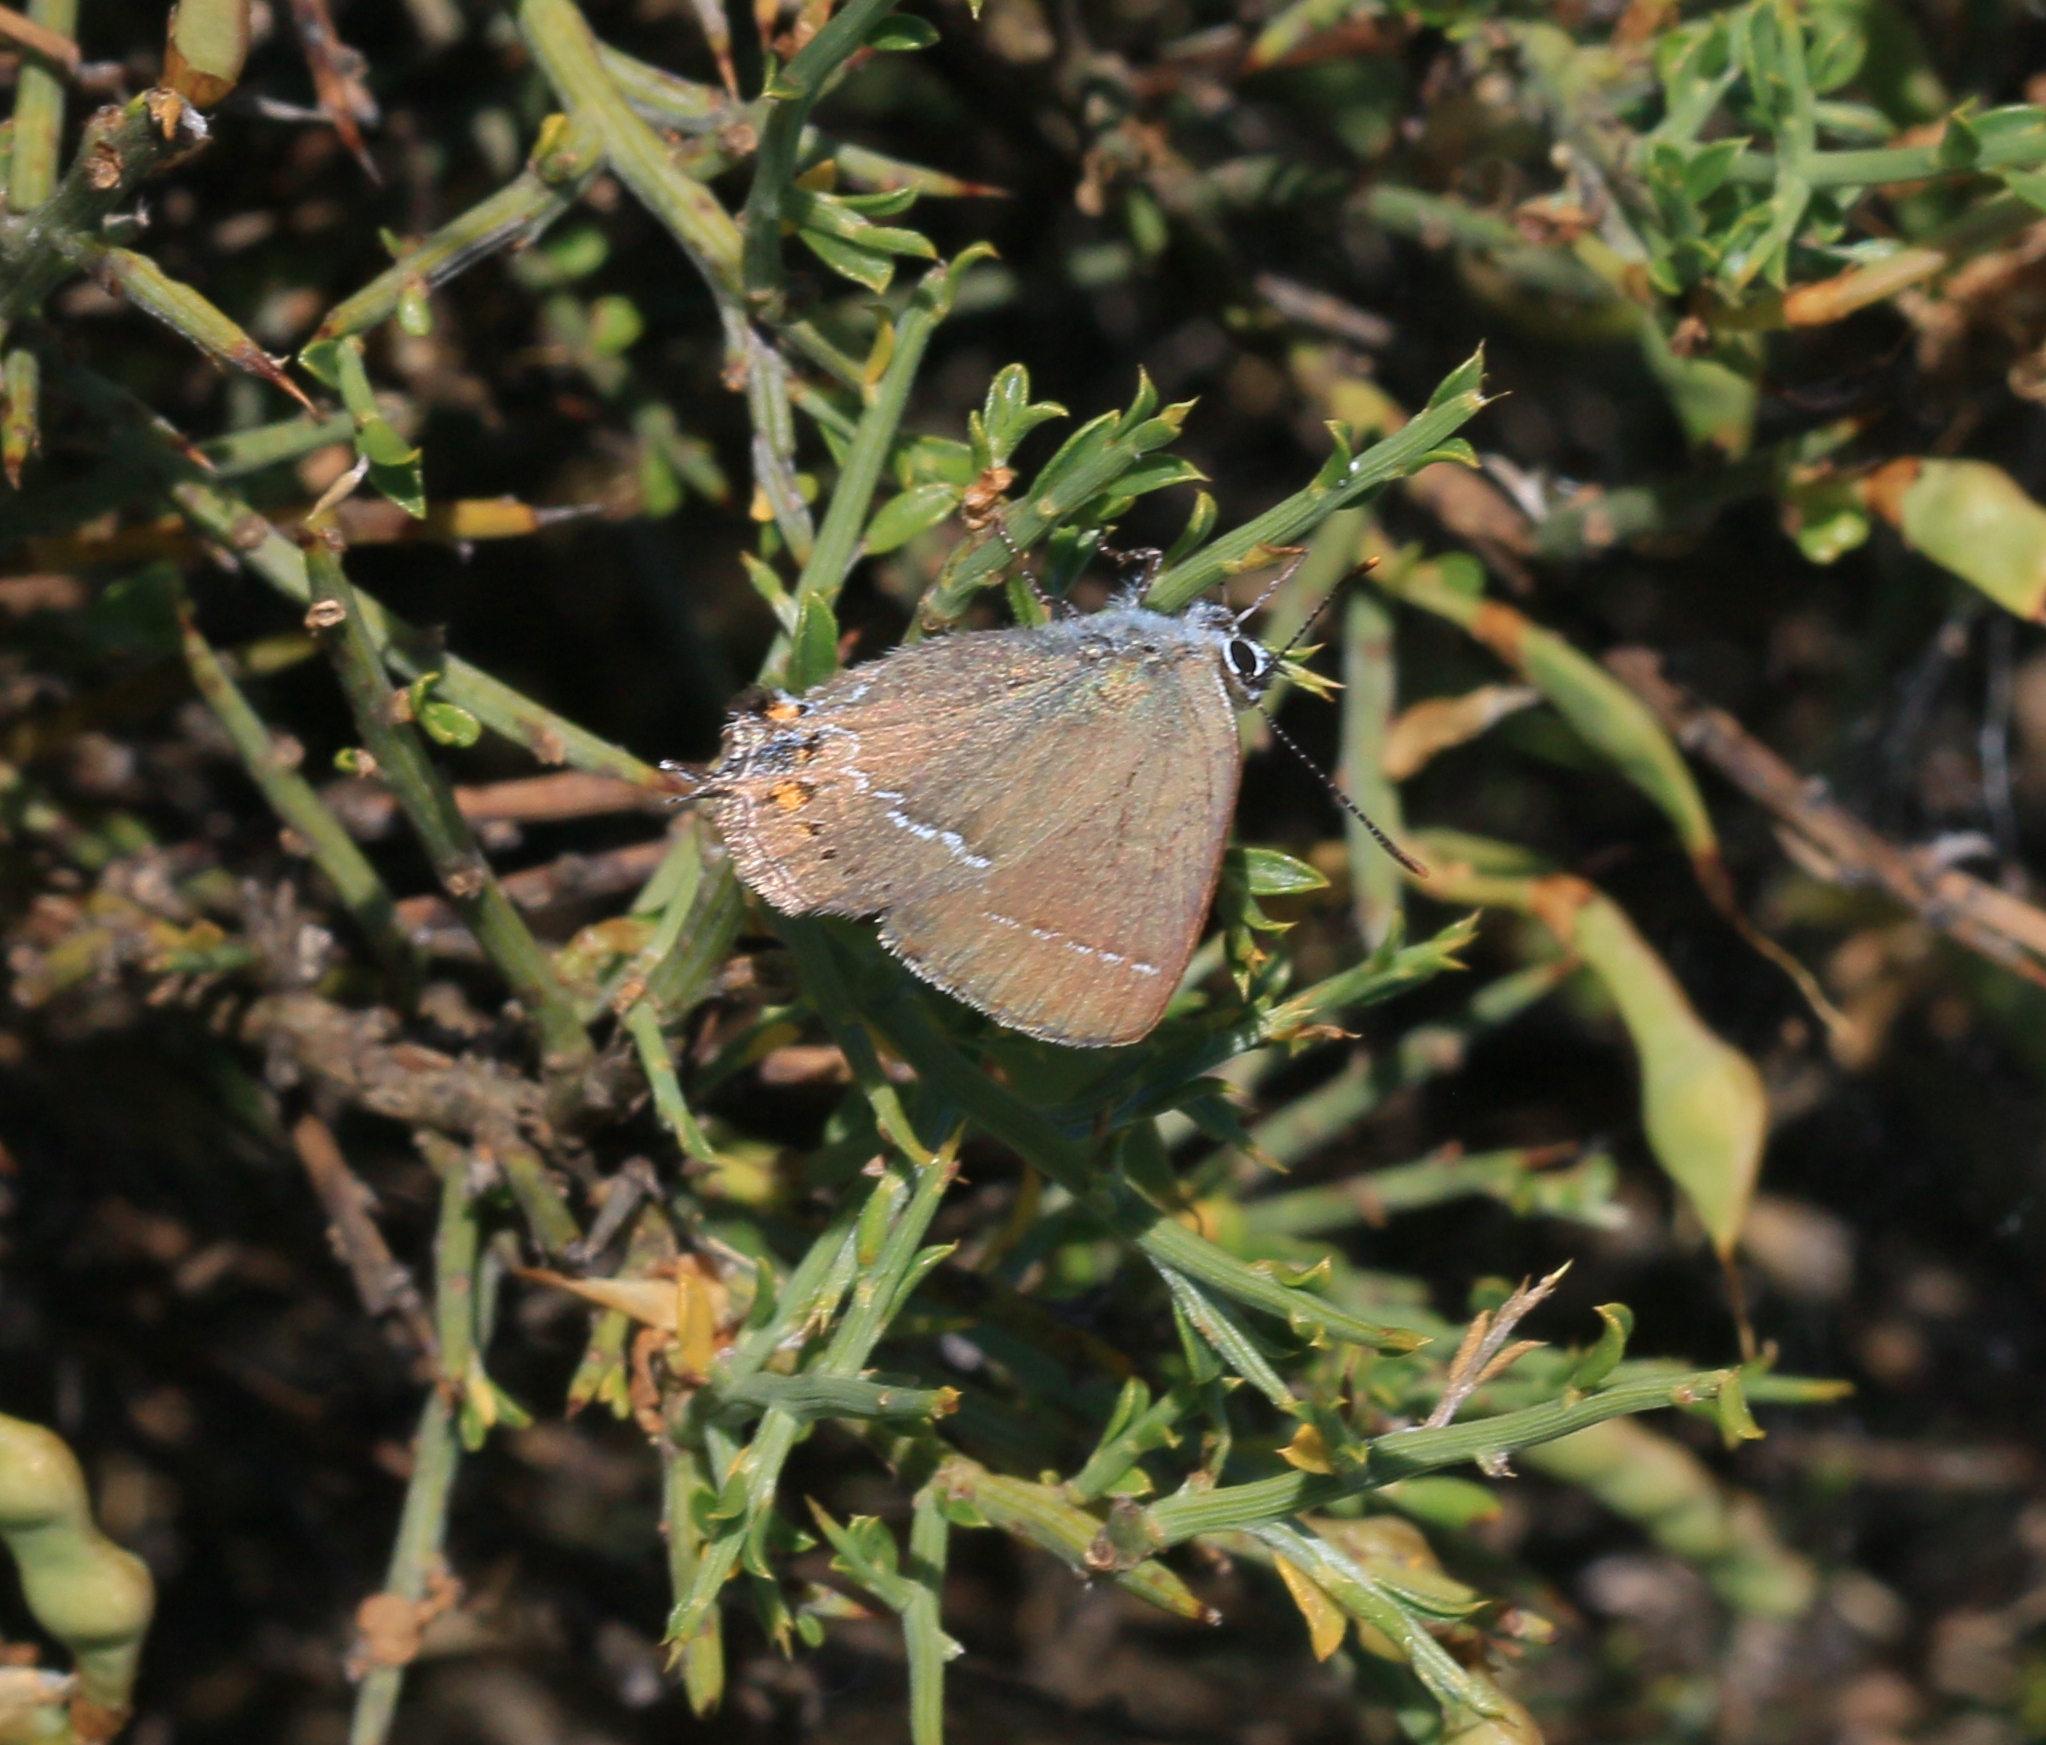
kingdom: Animalia
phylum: Arthropoda
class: Insecta
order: Lepidoptera
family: Lycaenidae
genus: Tuttiola
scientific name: Tuttiola spini
